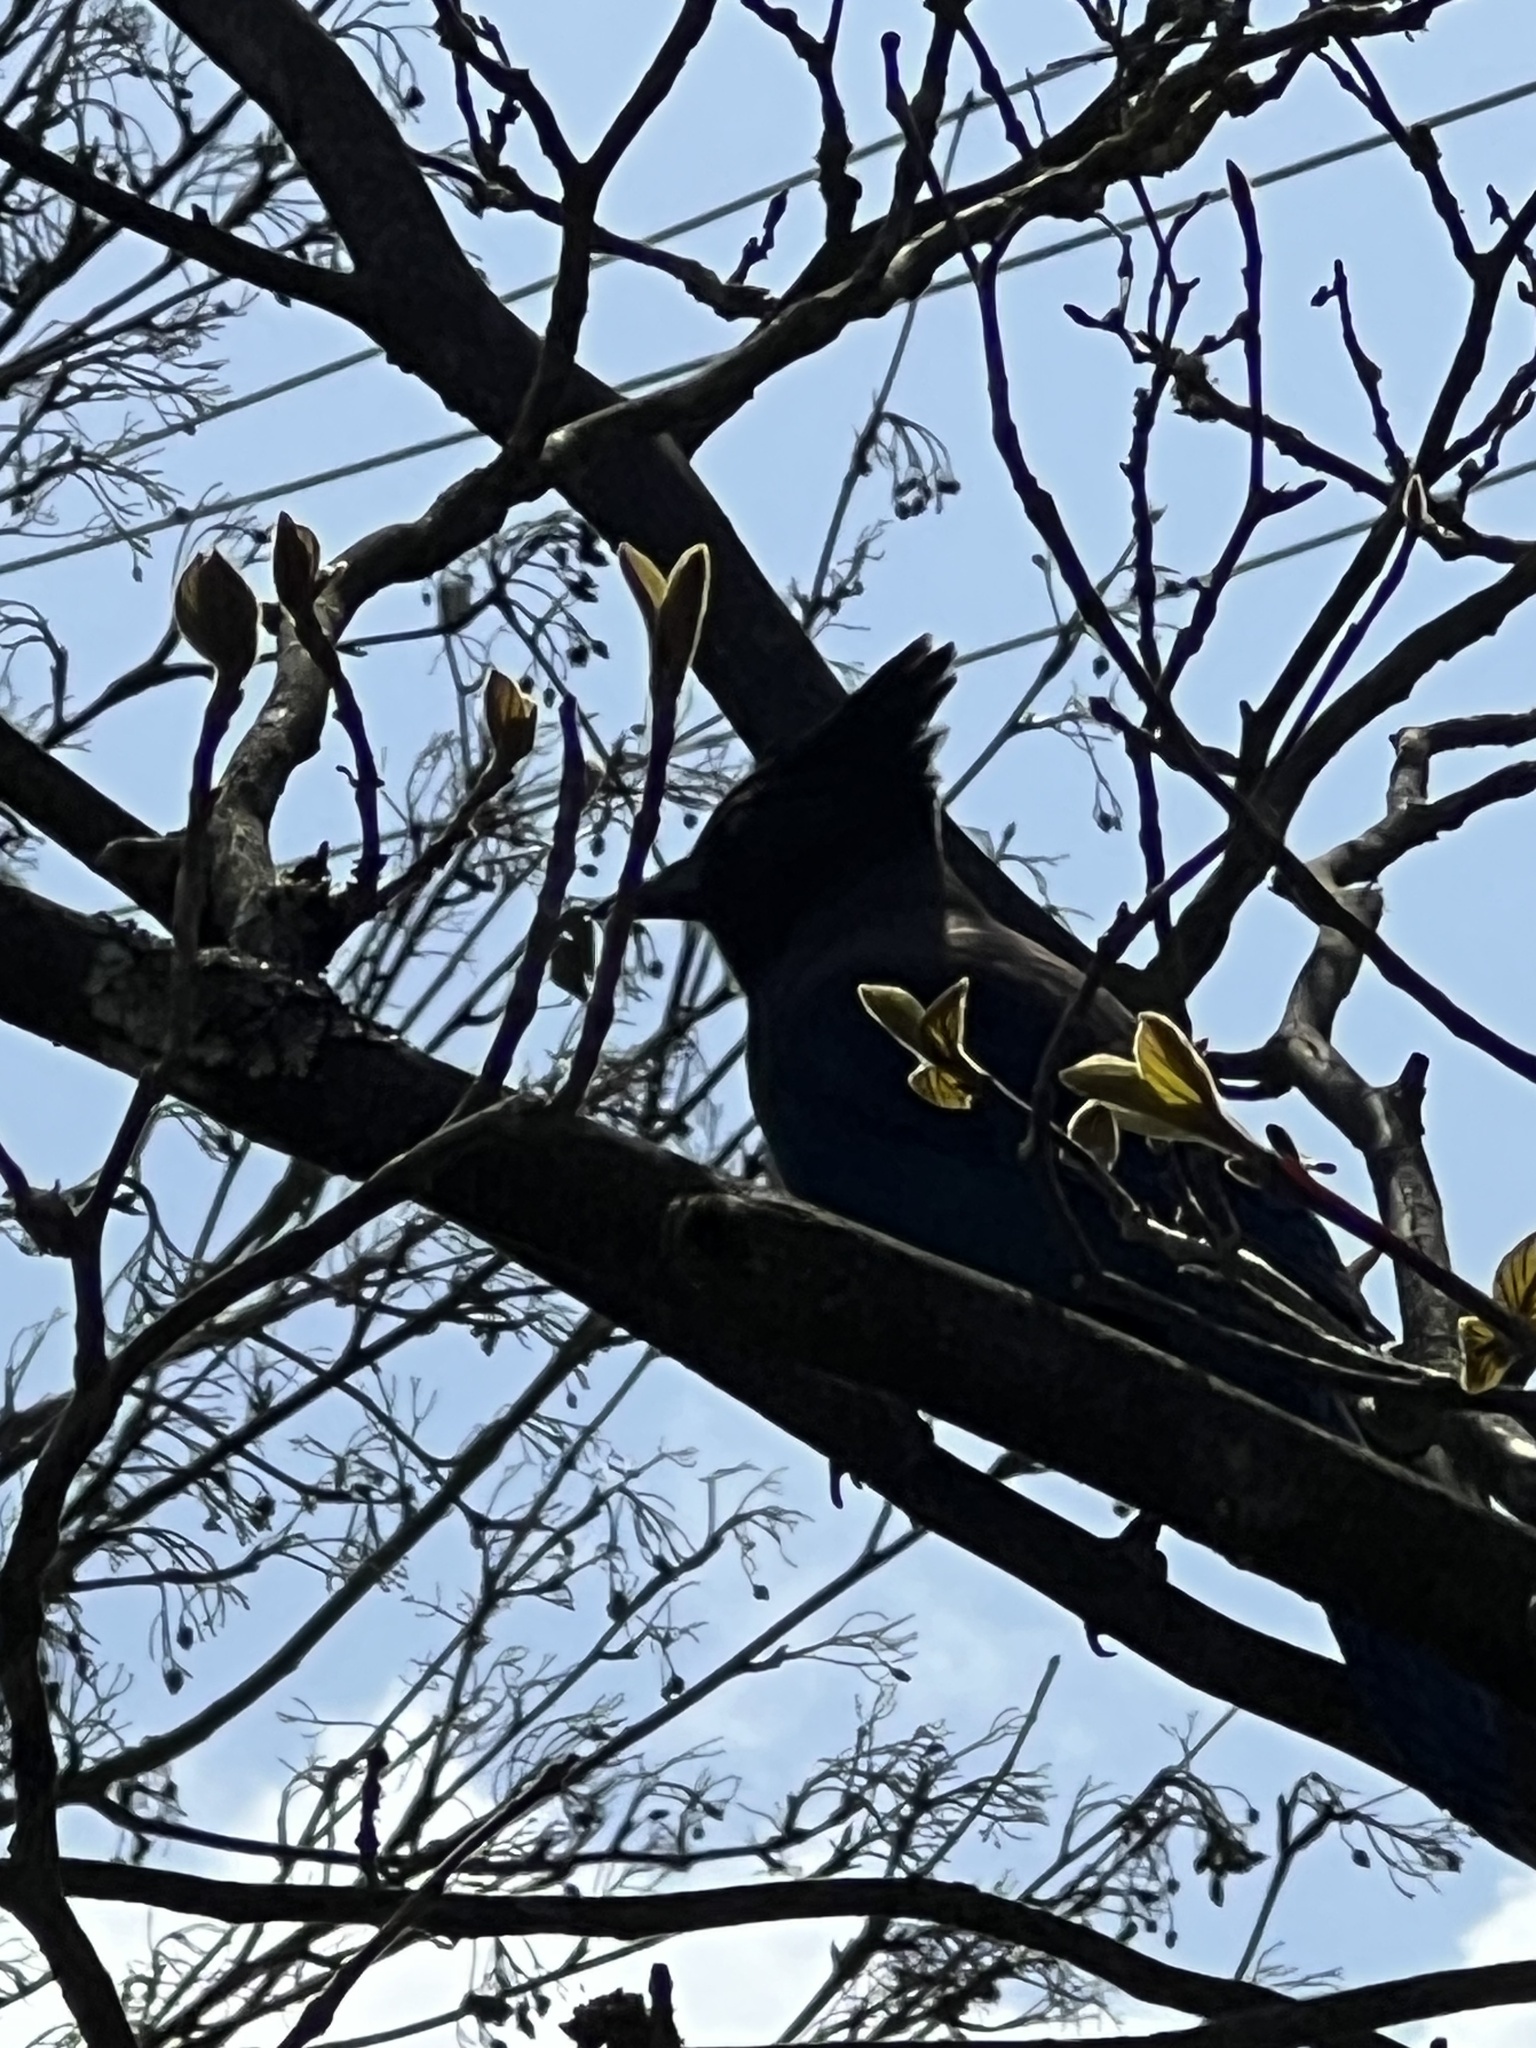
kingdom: Animalia
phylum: Chordata
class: Aves
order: Passeriformes
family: Corvidae
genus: Cyanocitta
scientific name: Cyanocitta stelleri
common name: Steller's jay
